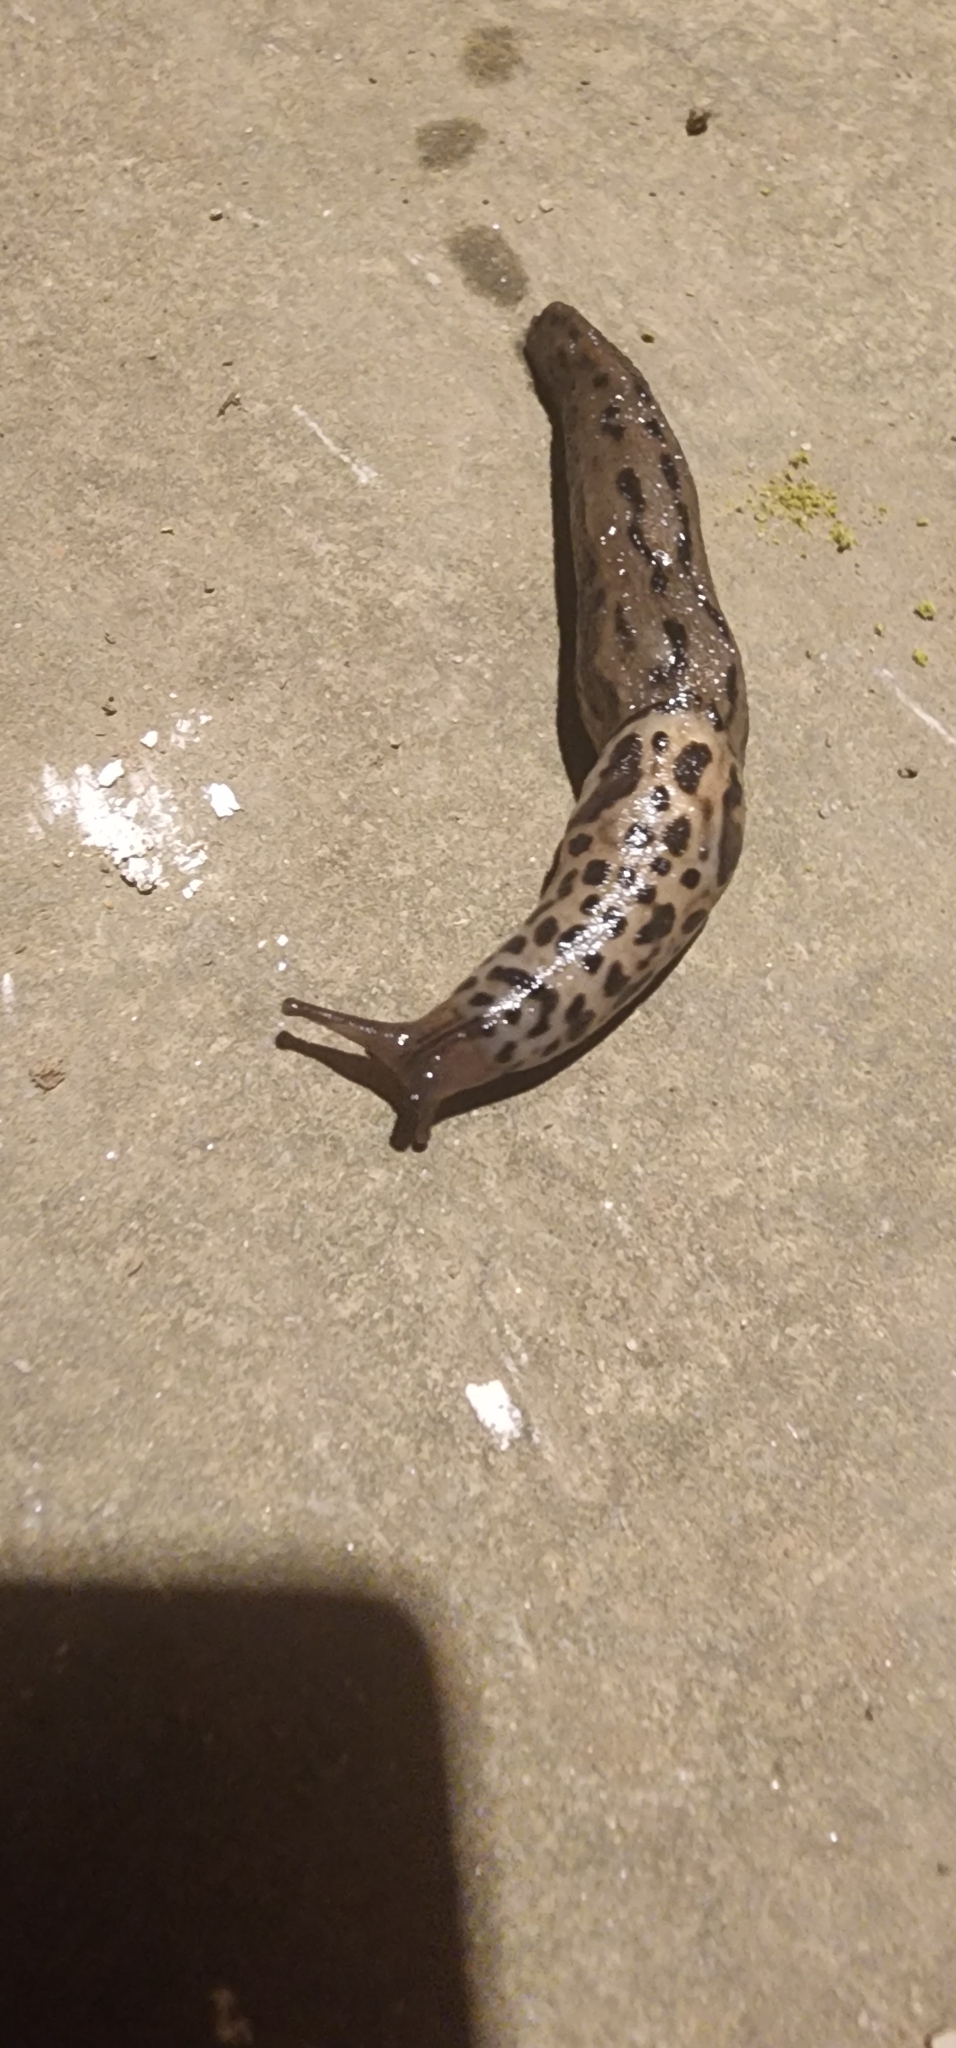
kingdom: Animalia
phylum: Mollusca
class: Gastropoda
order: Stylommatophora
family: Limacidae
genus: Limax
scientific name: Limax maximus
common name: Great grey slug
